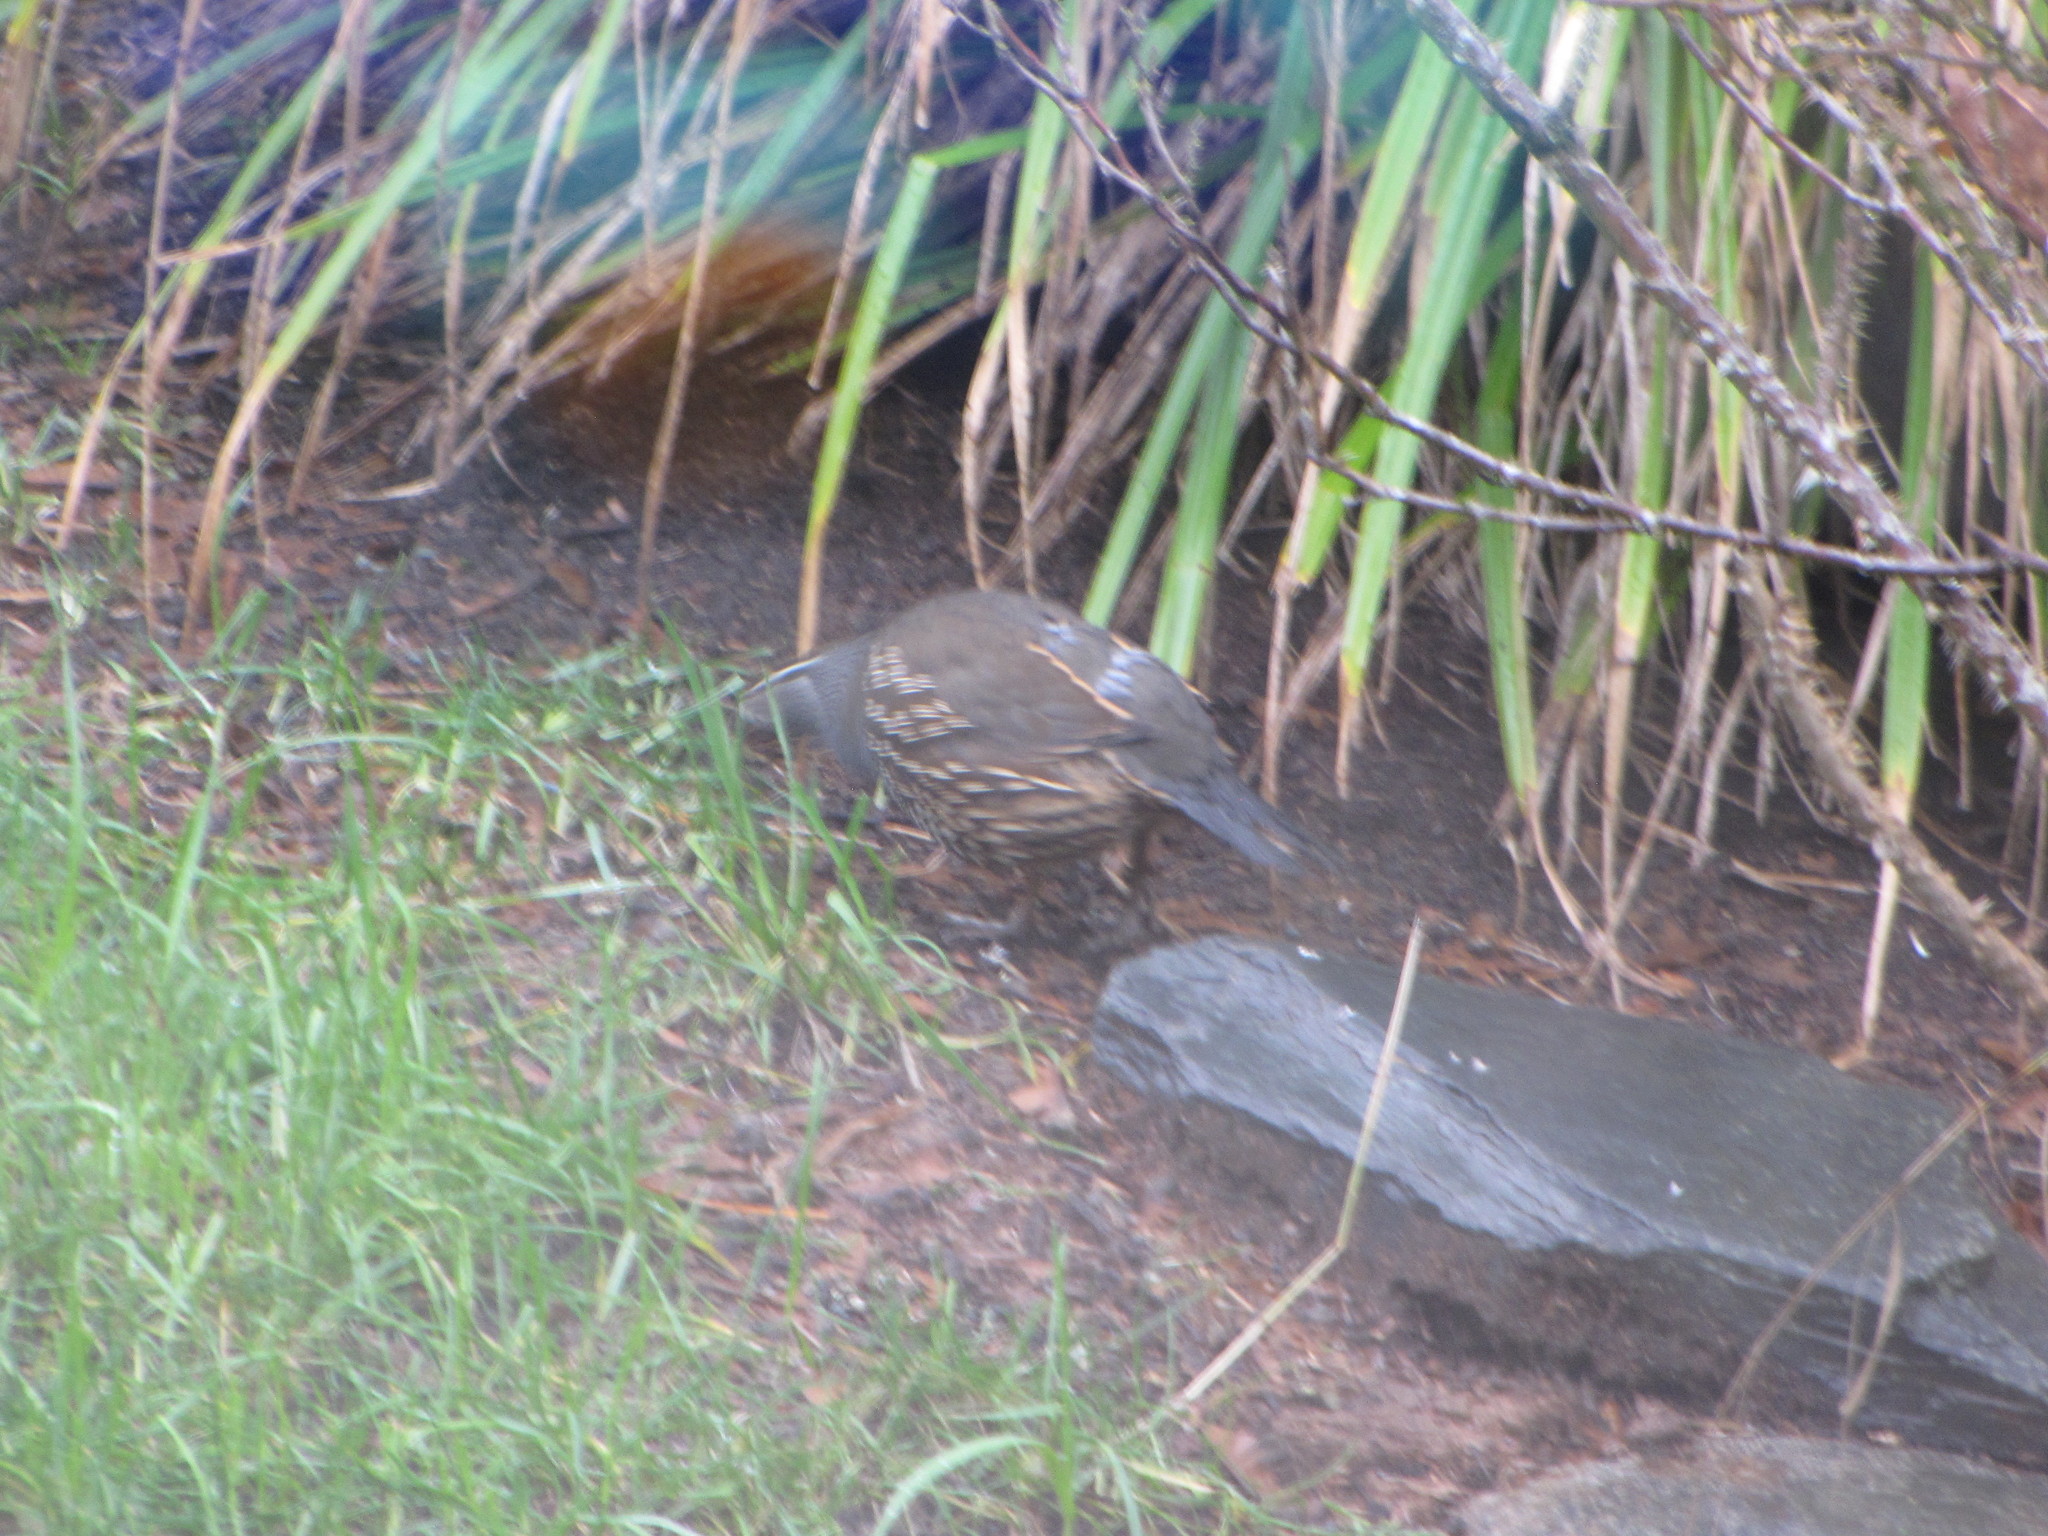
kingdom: Animalia
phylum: Chordata
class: Aves
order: Galliformes
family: Odontophoridae
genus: Callipepla
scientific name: Callipepla californica
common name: California quail
